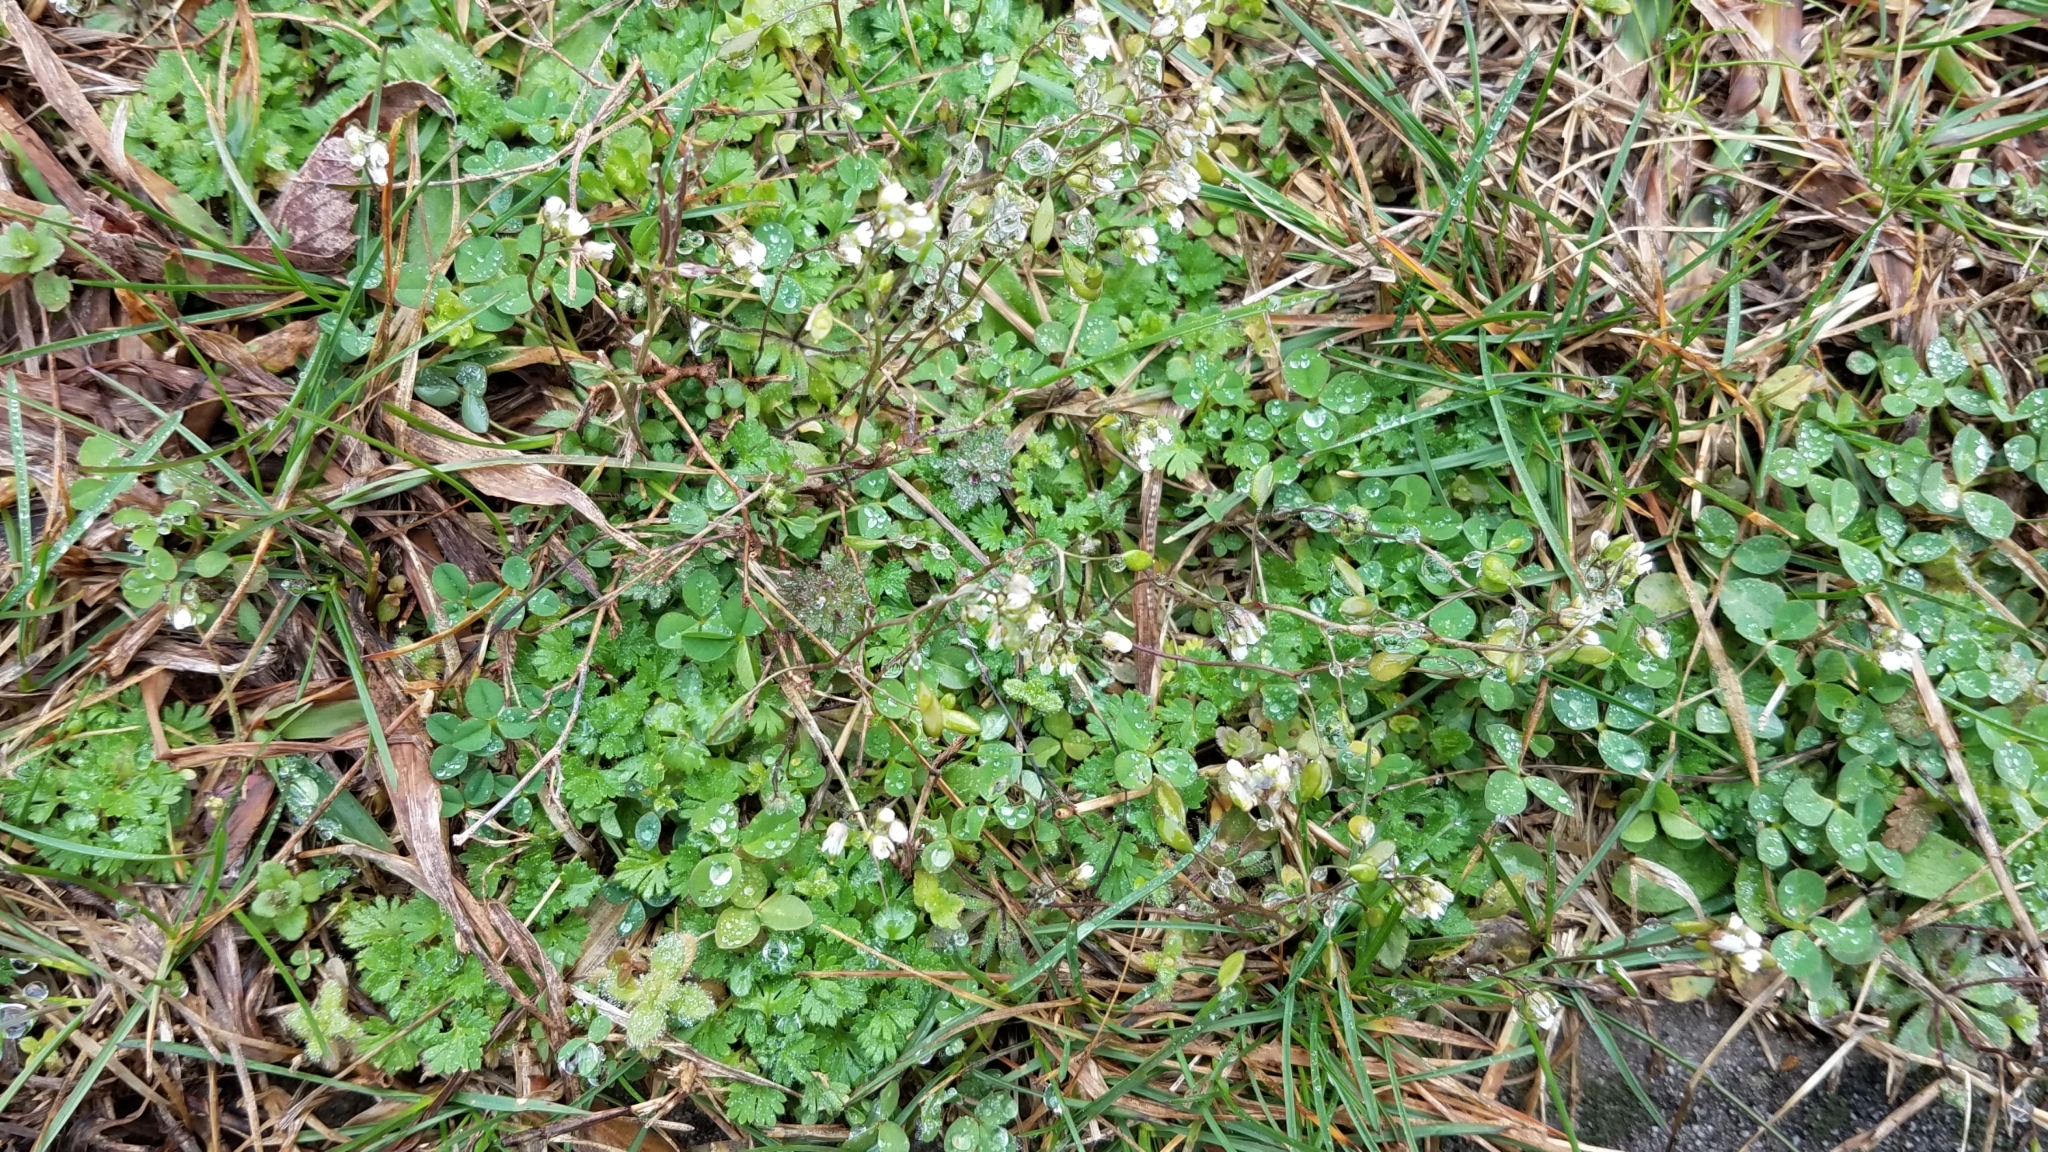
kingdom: Plantae
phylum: Tracheophyta
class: Magnoliopsida
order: Caryophyllales
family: Caryophyllaceae
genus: Cerastium
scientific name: Cerastium fontanum
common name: Common mouse-ear
